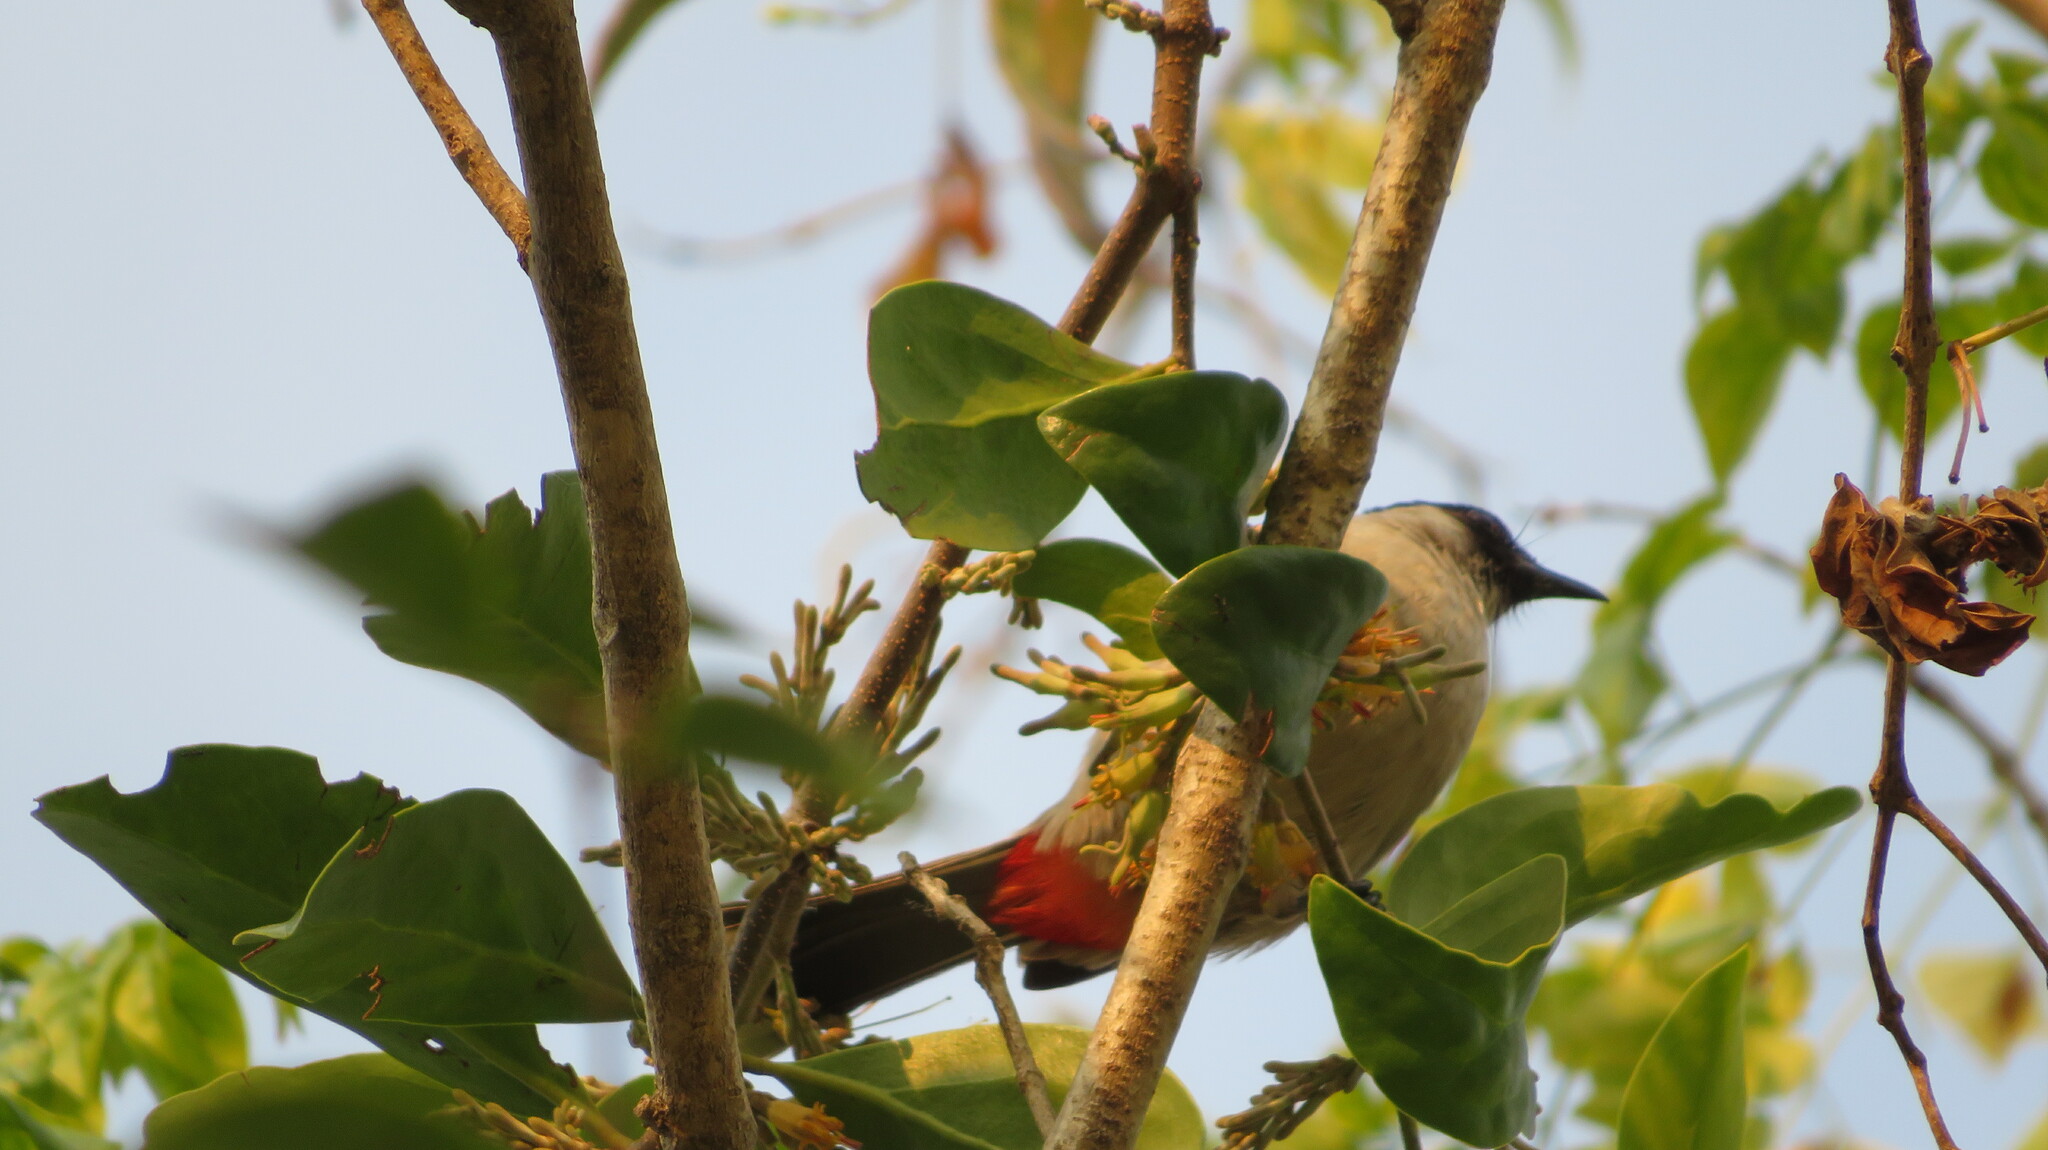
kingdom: Animalia
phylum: Chordata
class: Aves
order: Passeriformes
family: Pycnonotidae
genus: Pycnonotus
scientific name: Pycnonotus aurigaster
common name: Sooty-headed bulbul
